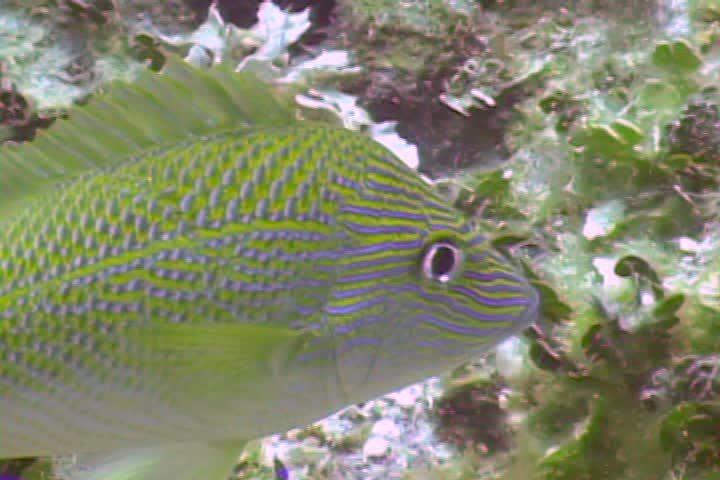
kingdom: Animalia
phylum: Chordata
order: Perciformes
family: Haemulidae
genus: Haemulon
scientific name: Haemulon plumierii
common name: White grunt
